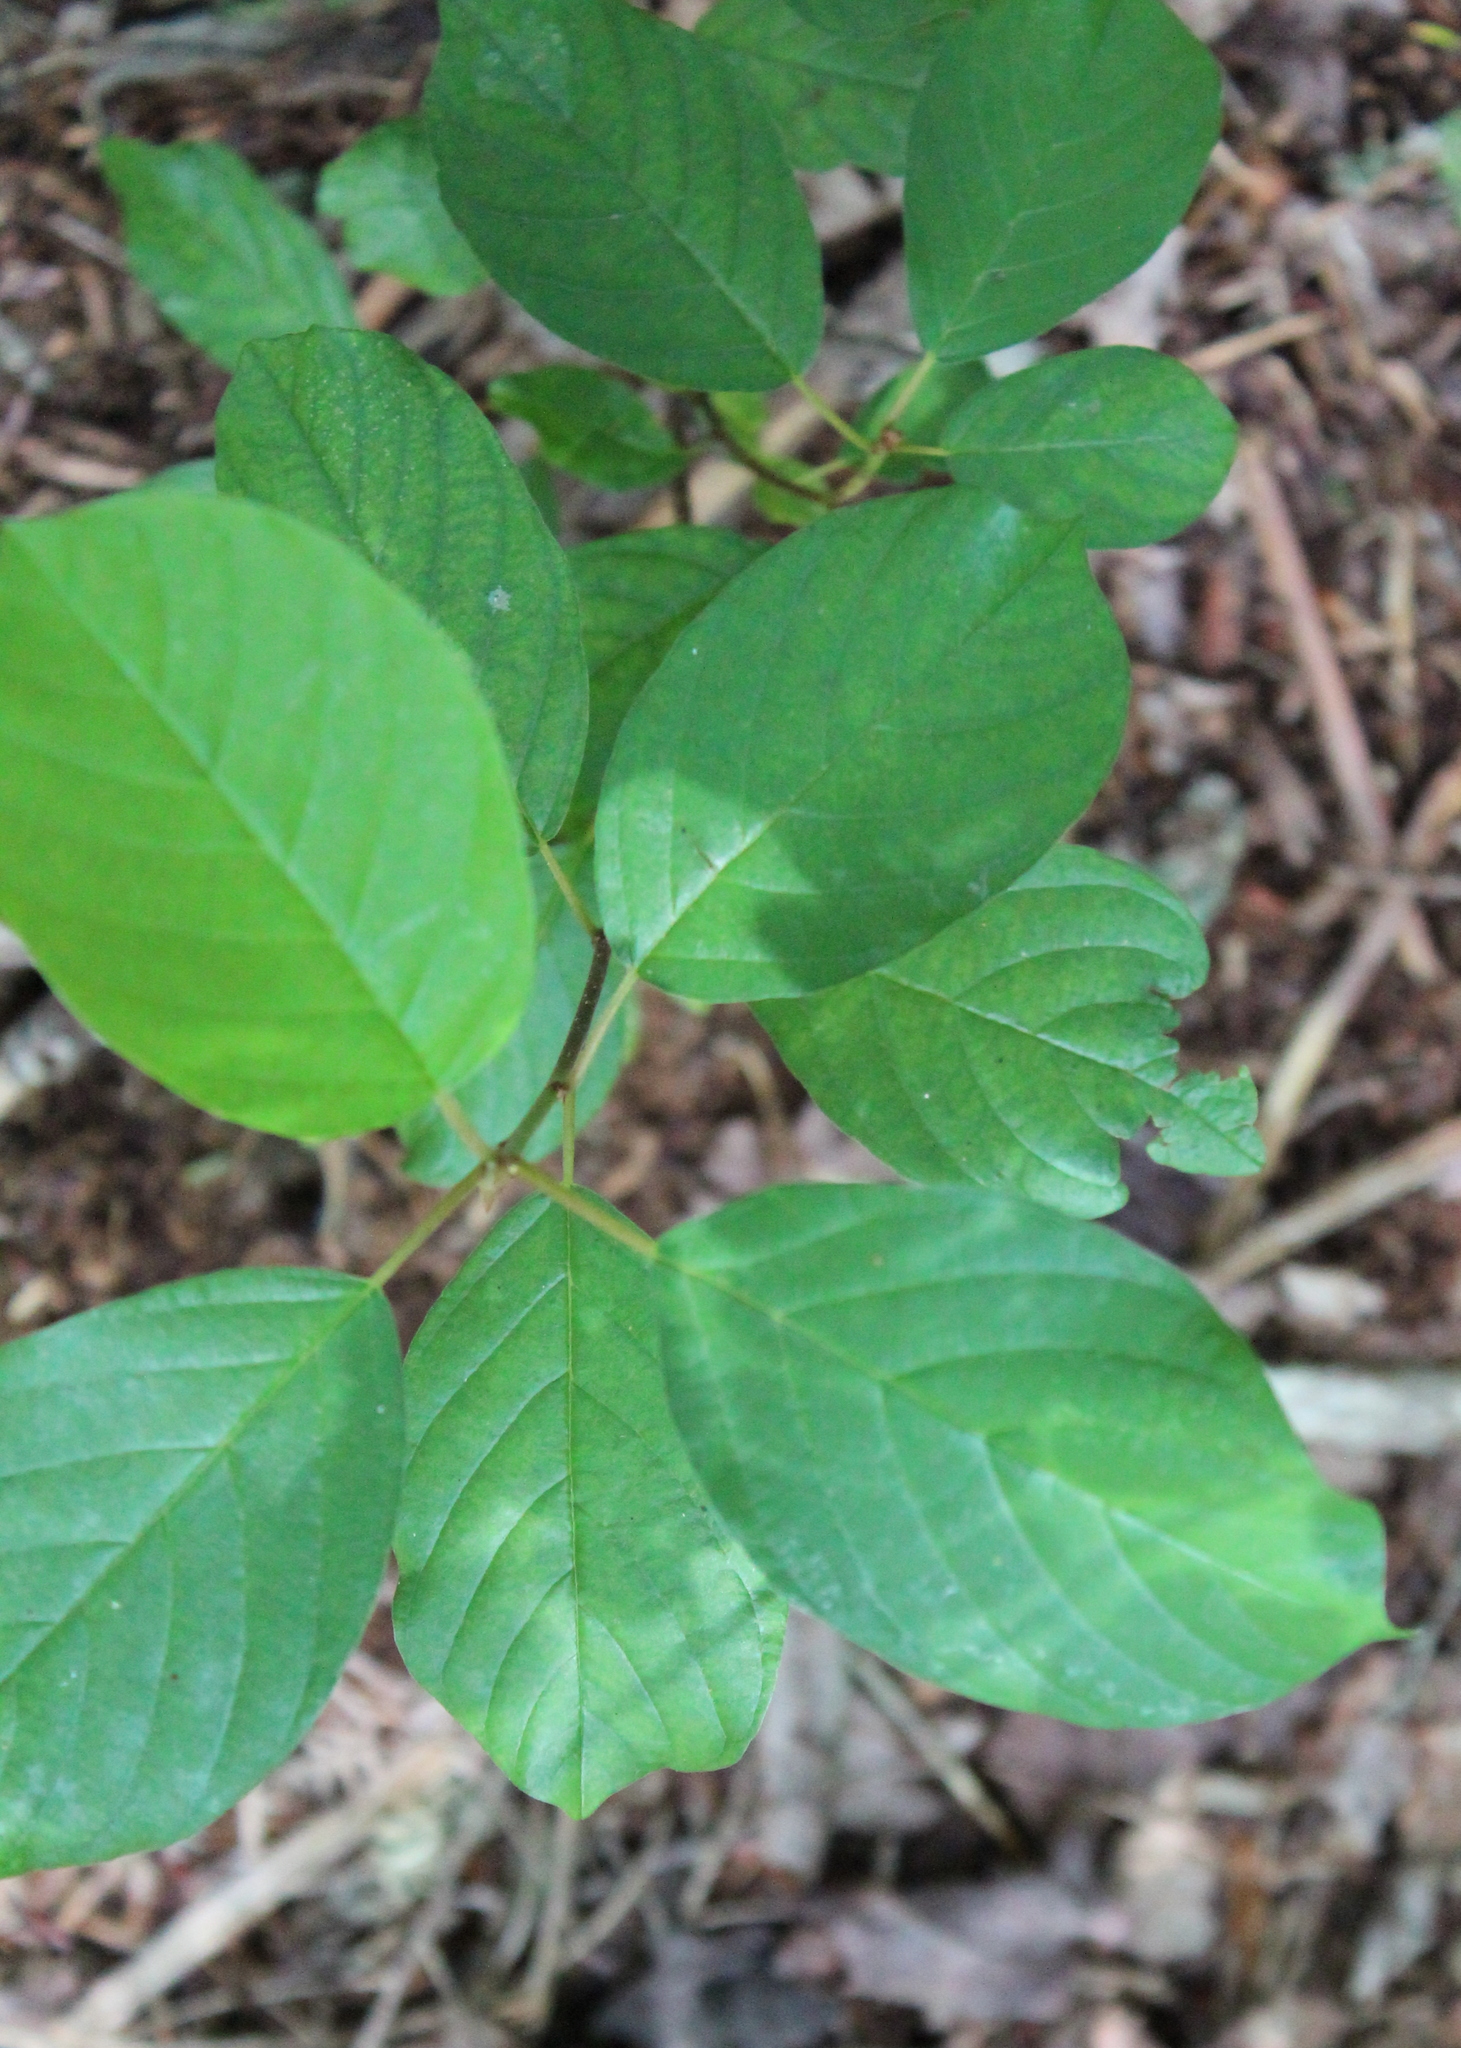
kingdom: Plantae
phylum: Tracheophyta
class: Magnoliopsida
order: Rosales
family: Rhamnaceae
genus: Frangula
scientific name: Frangula alnus
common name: Alder buckthorn
